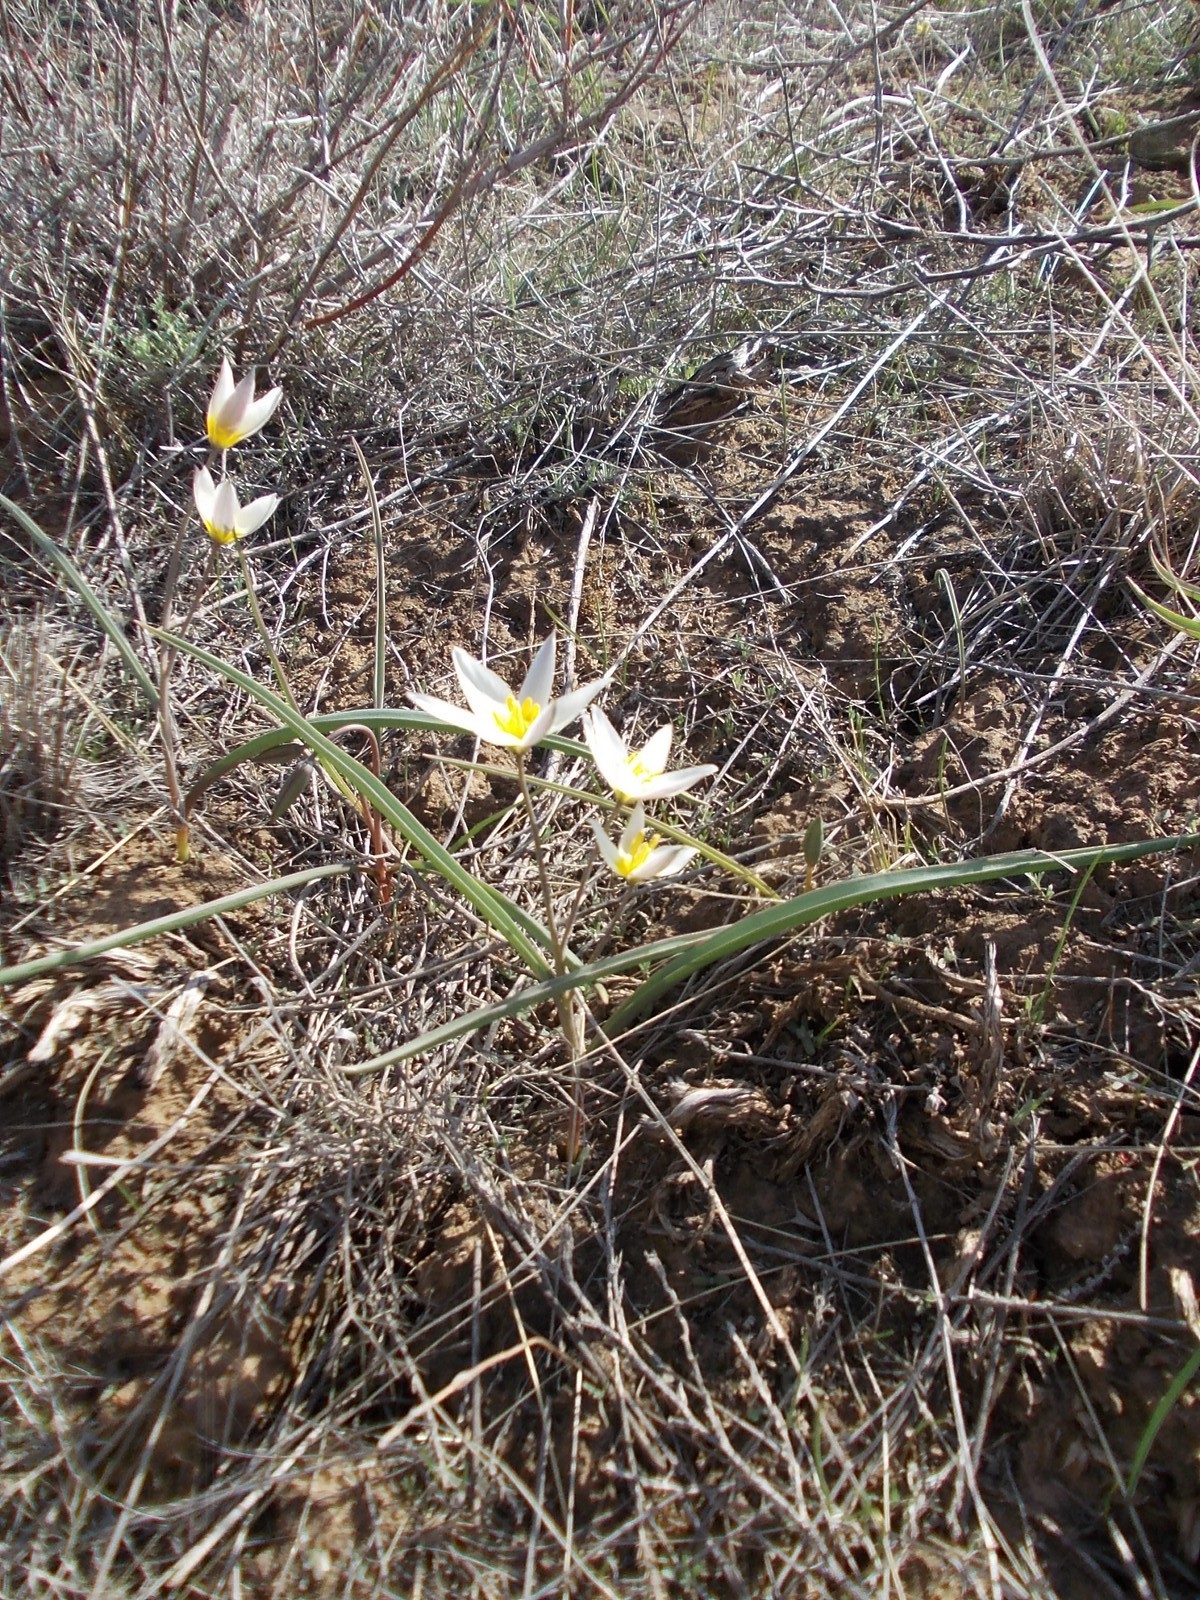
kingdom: Plantae
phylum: Tracheophyta
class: Liliopsida
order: Liliales
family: Liliaceae
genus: Tulipa
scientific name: Tulipa biflora
